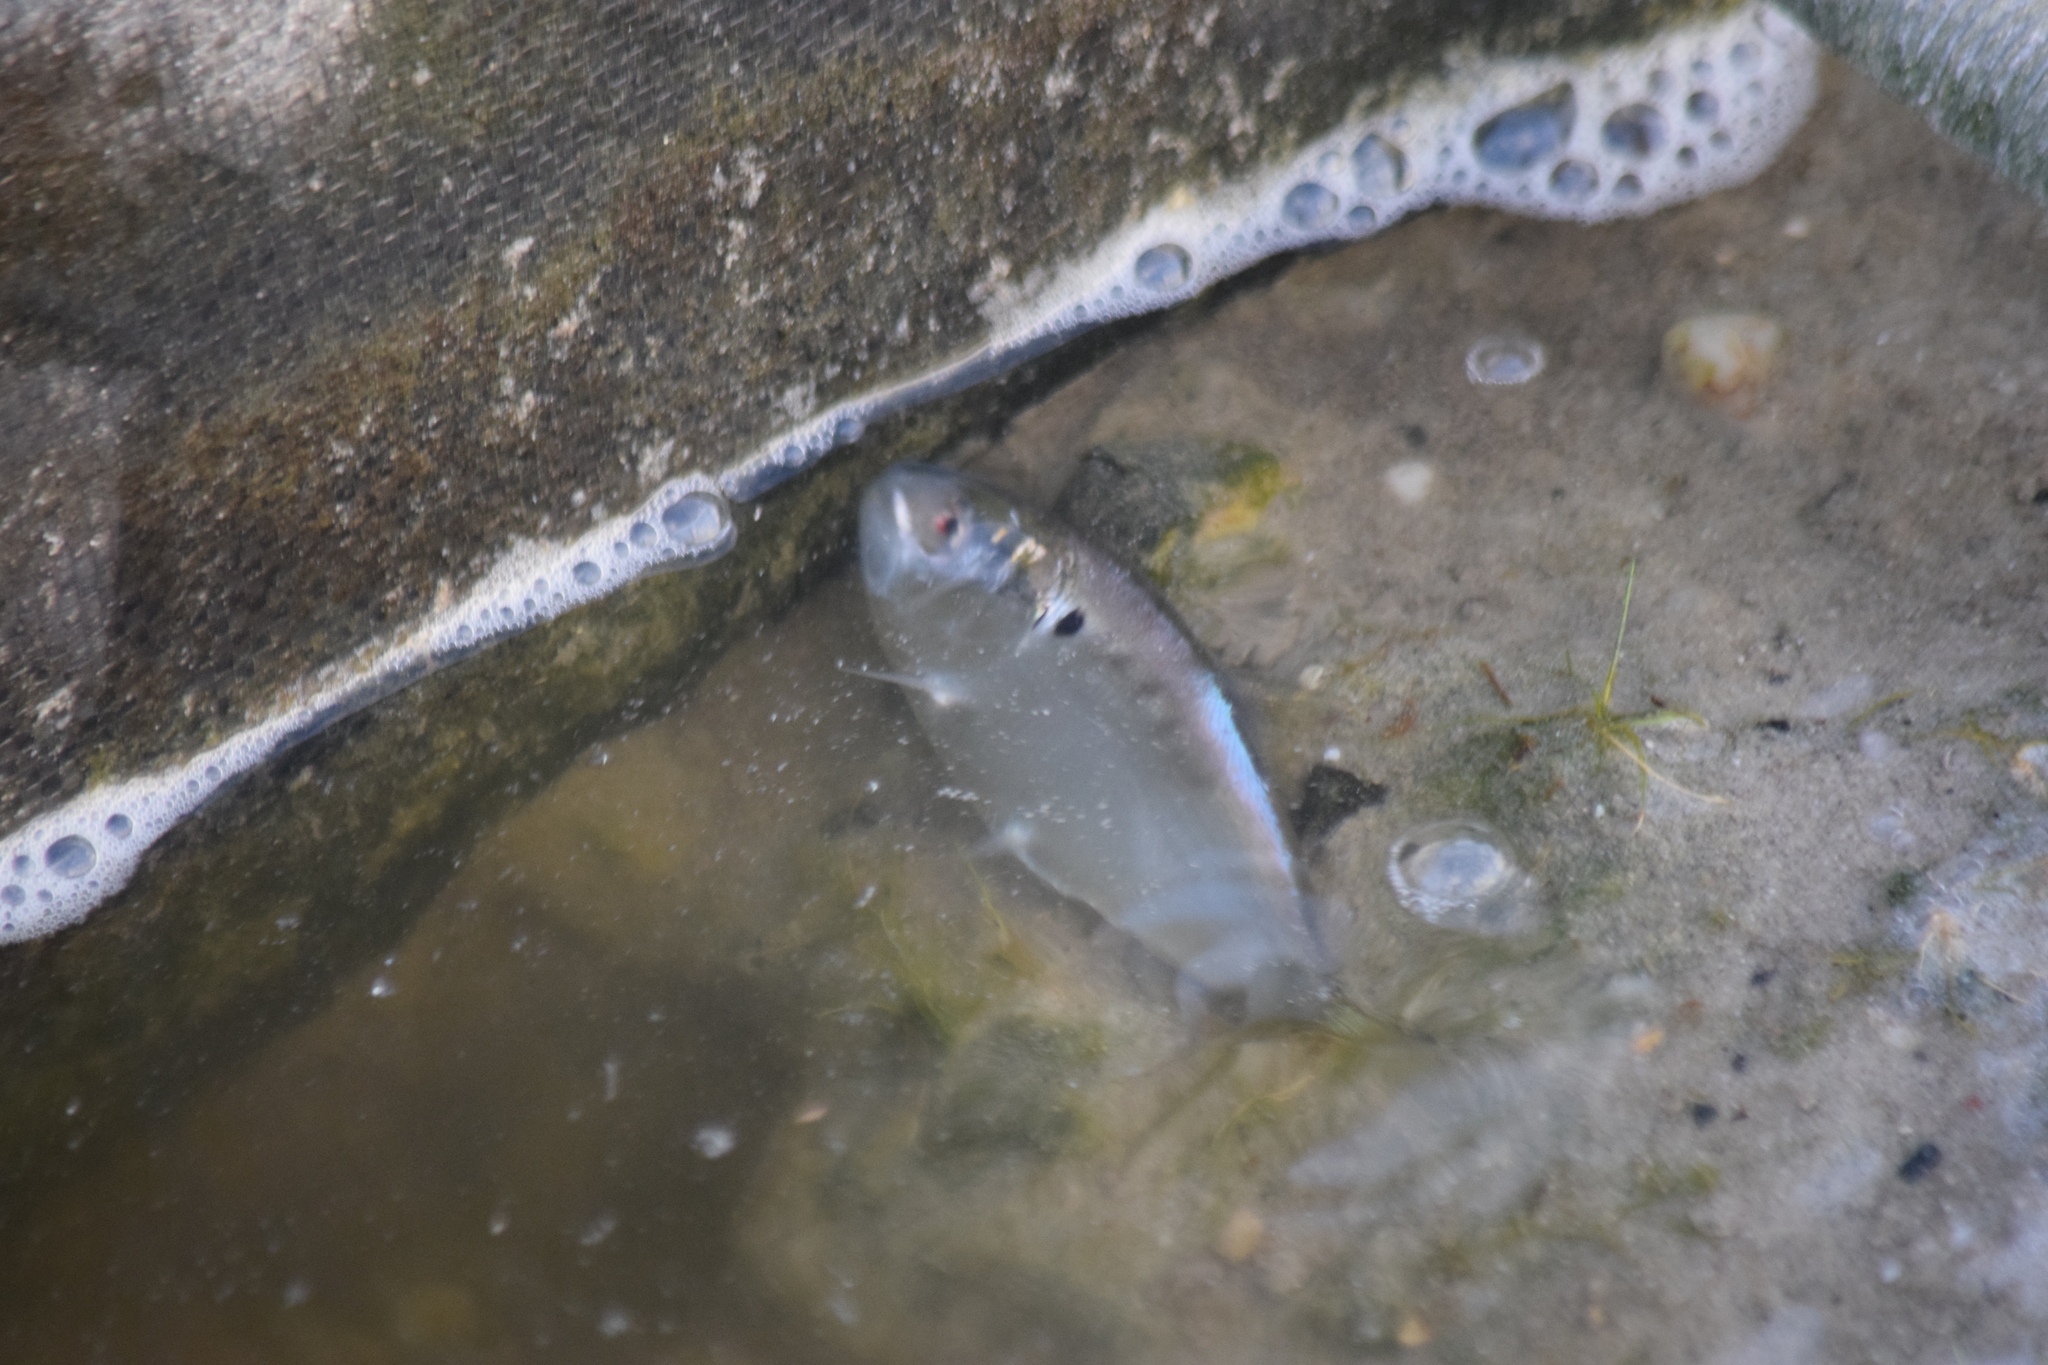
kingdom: Animalia
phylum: Chordata
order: Clupeiformes
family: Clupeidae
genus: Brevoortia
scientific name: Brevoortia tyrannus
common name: Atlantic menhaden
